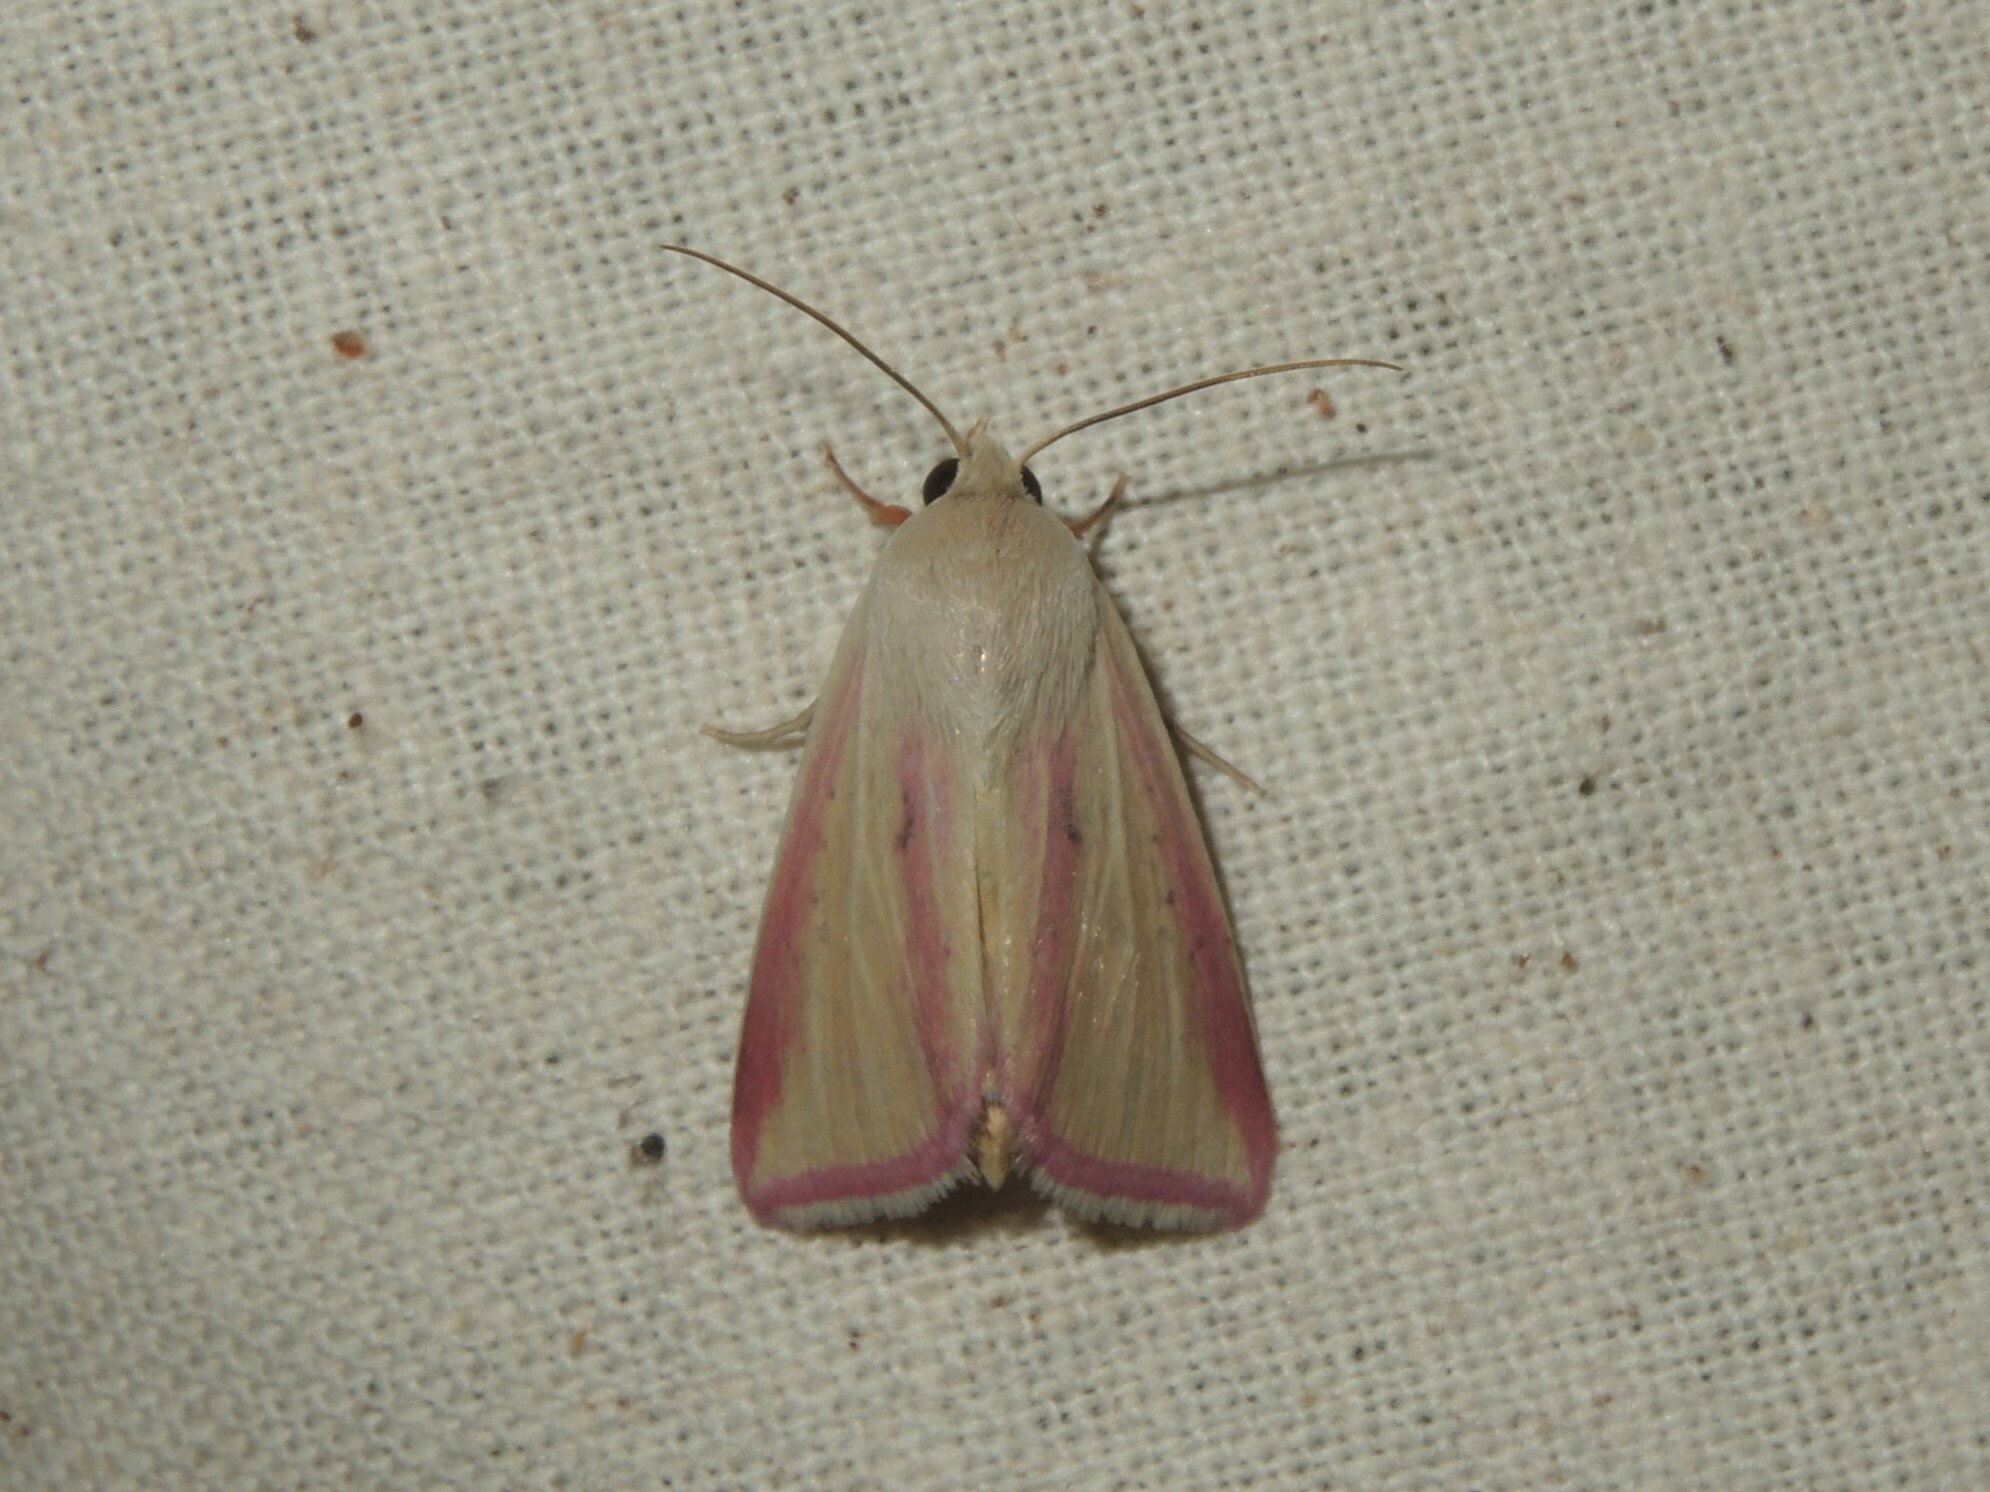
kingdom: Animalia
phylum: Arthropoda
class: Insecta
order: Lepidoptera
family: Noctuidae
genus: Adisura
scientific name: Adisura marginalis
